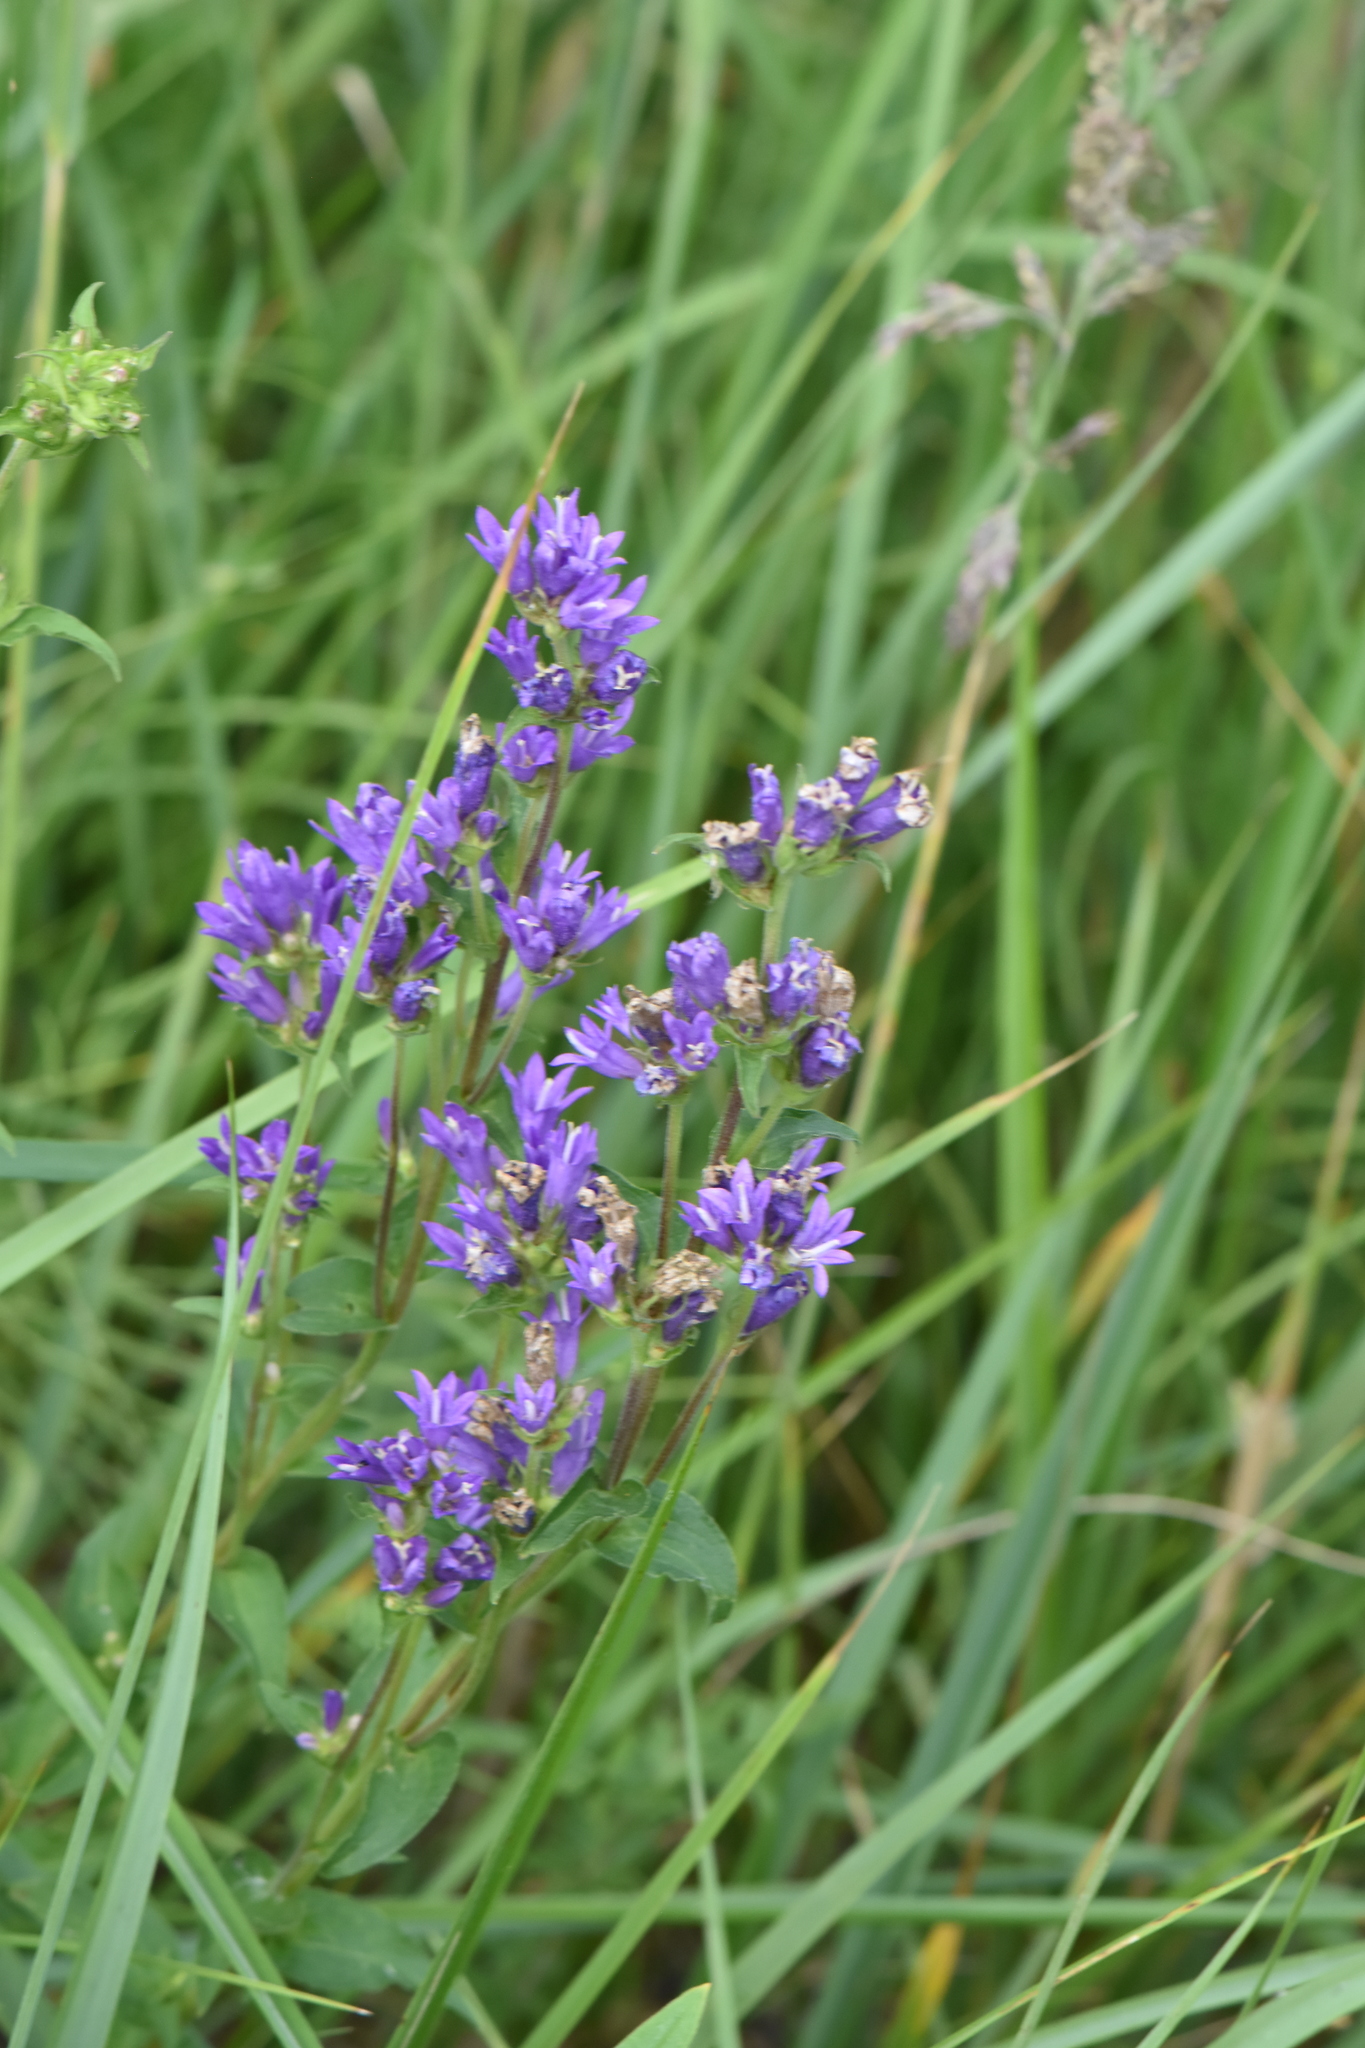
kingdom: Plantae
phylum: Tracheophyta
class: Magnoliopsida
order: Asterales
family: Campanulaceae
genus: Campanula
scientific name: Campanula glomerata
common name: Clustered bellflower
